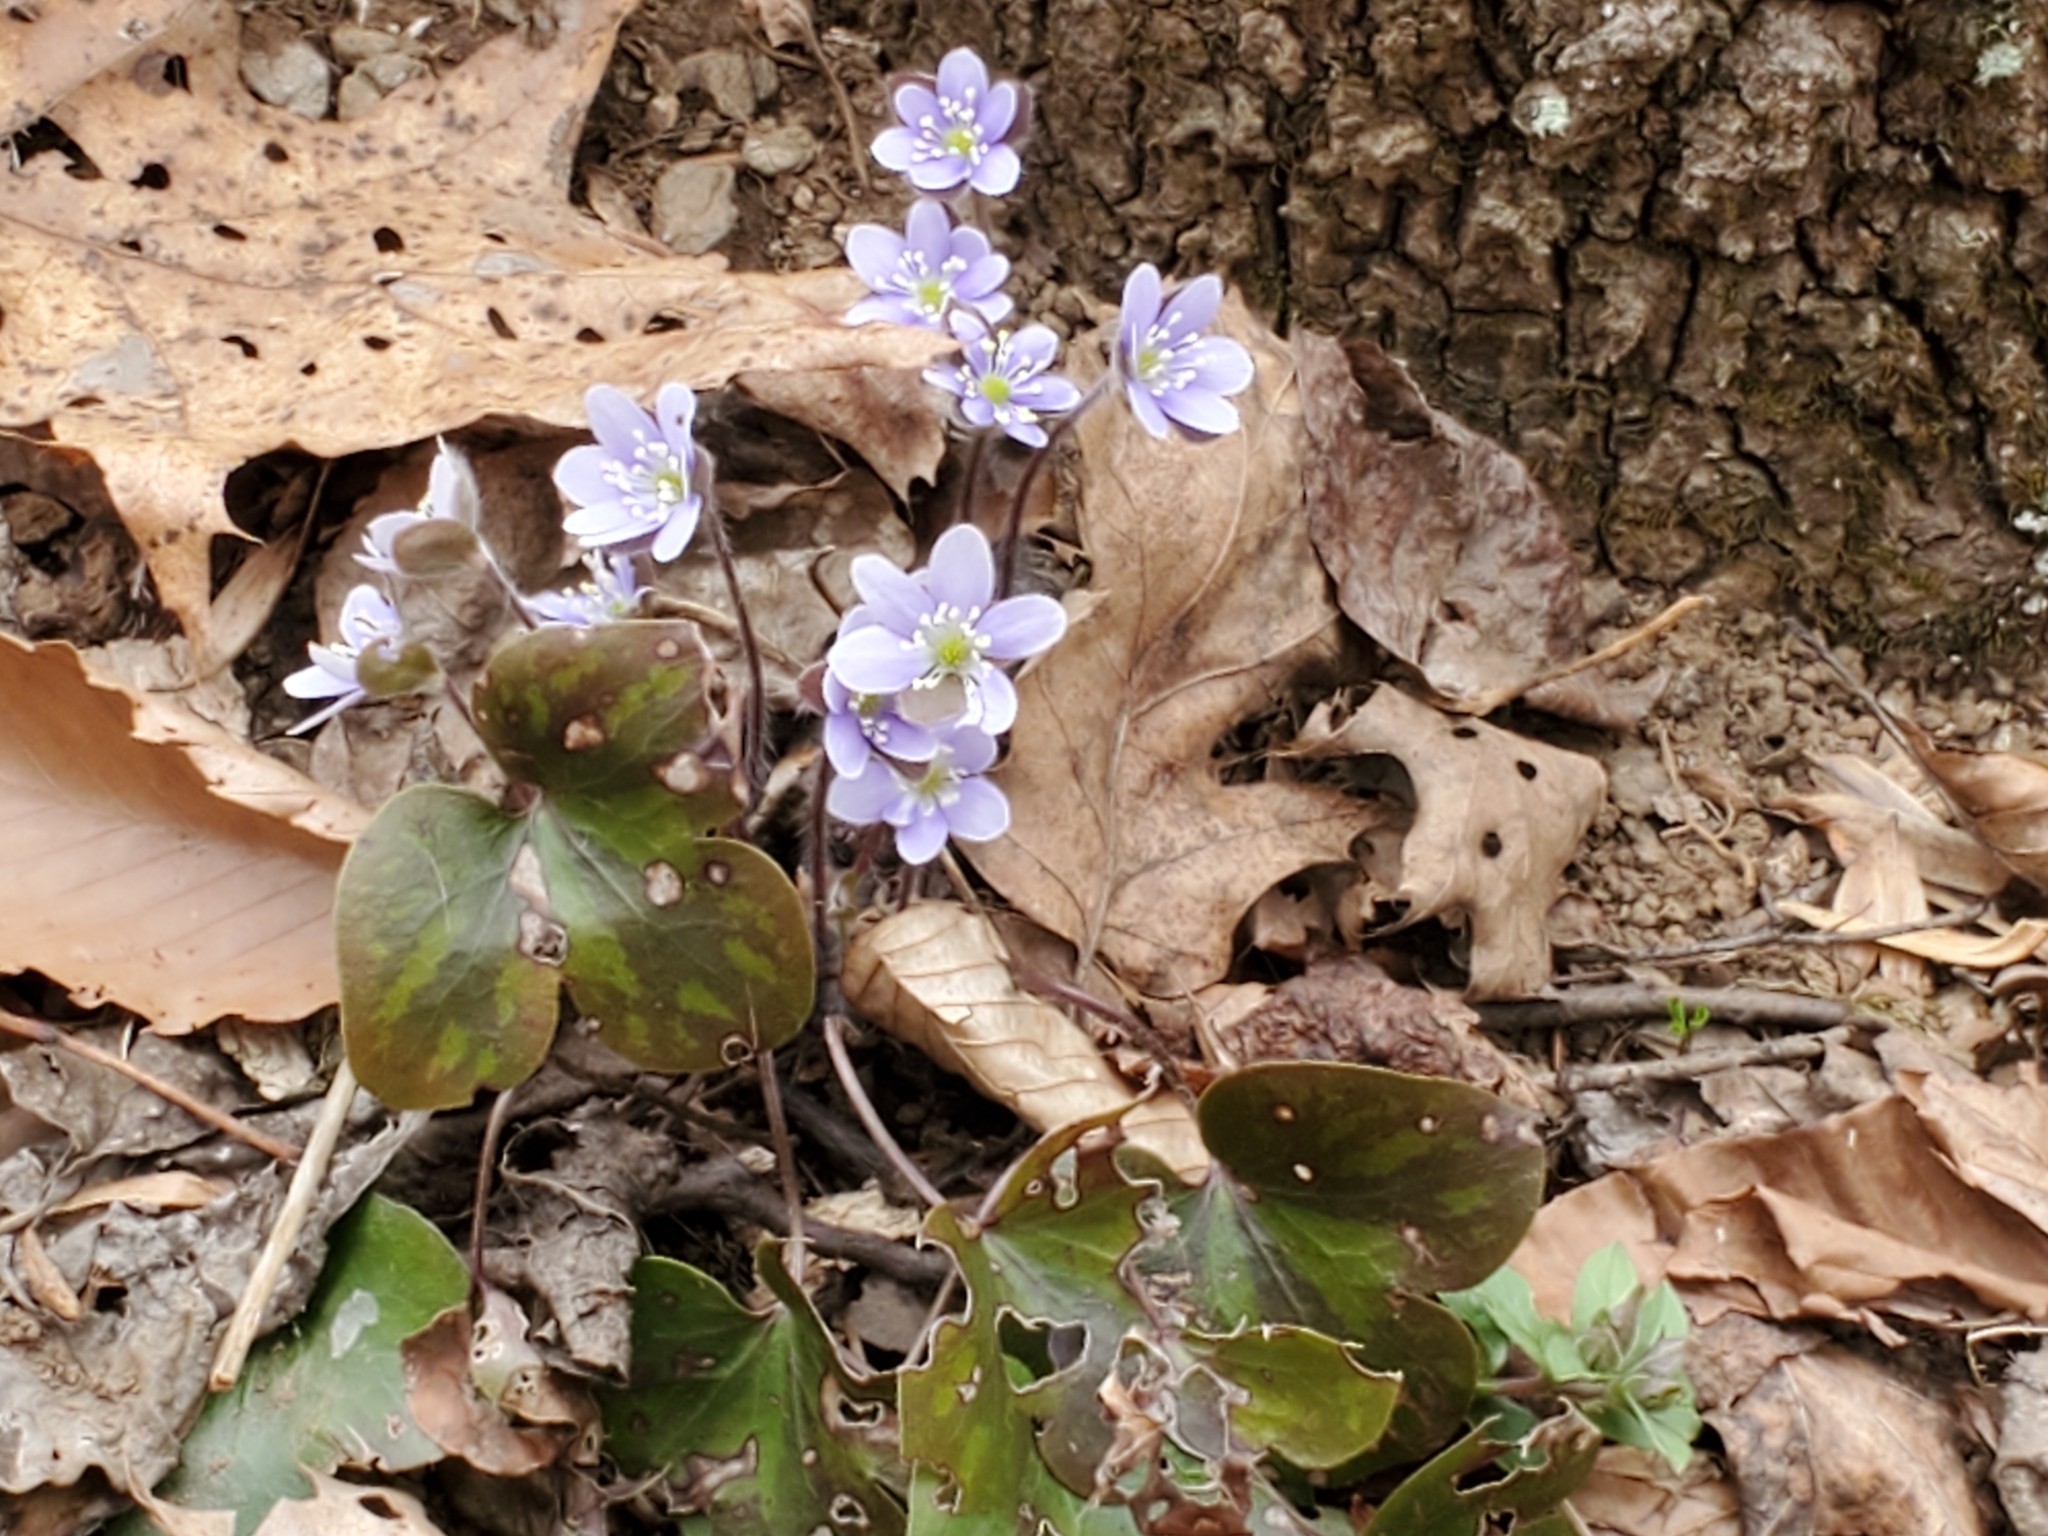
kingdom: Plantae
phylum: Tracheophyta
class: Magnoliopsida
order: Ranunculales
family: Ranunculaceae
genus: Hepatica
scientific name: Hepatica americana
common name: American hepatica
